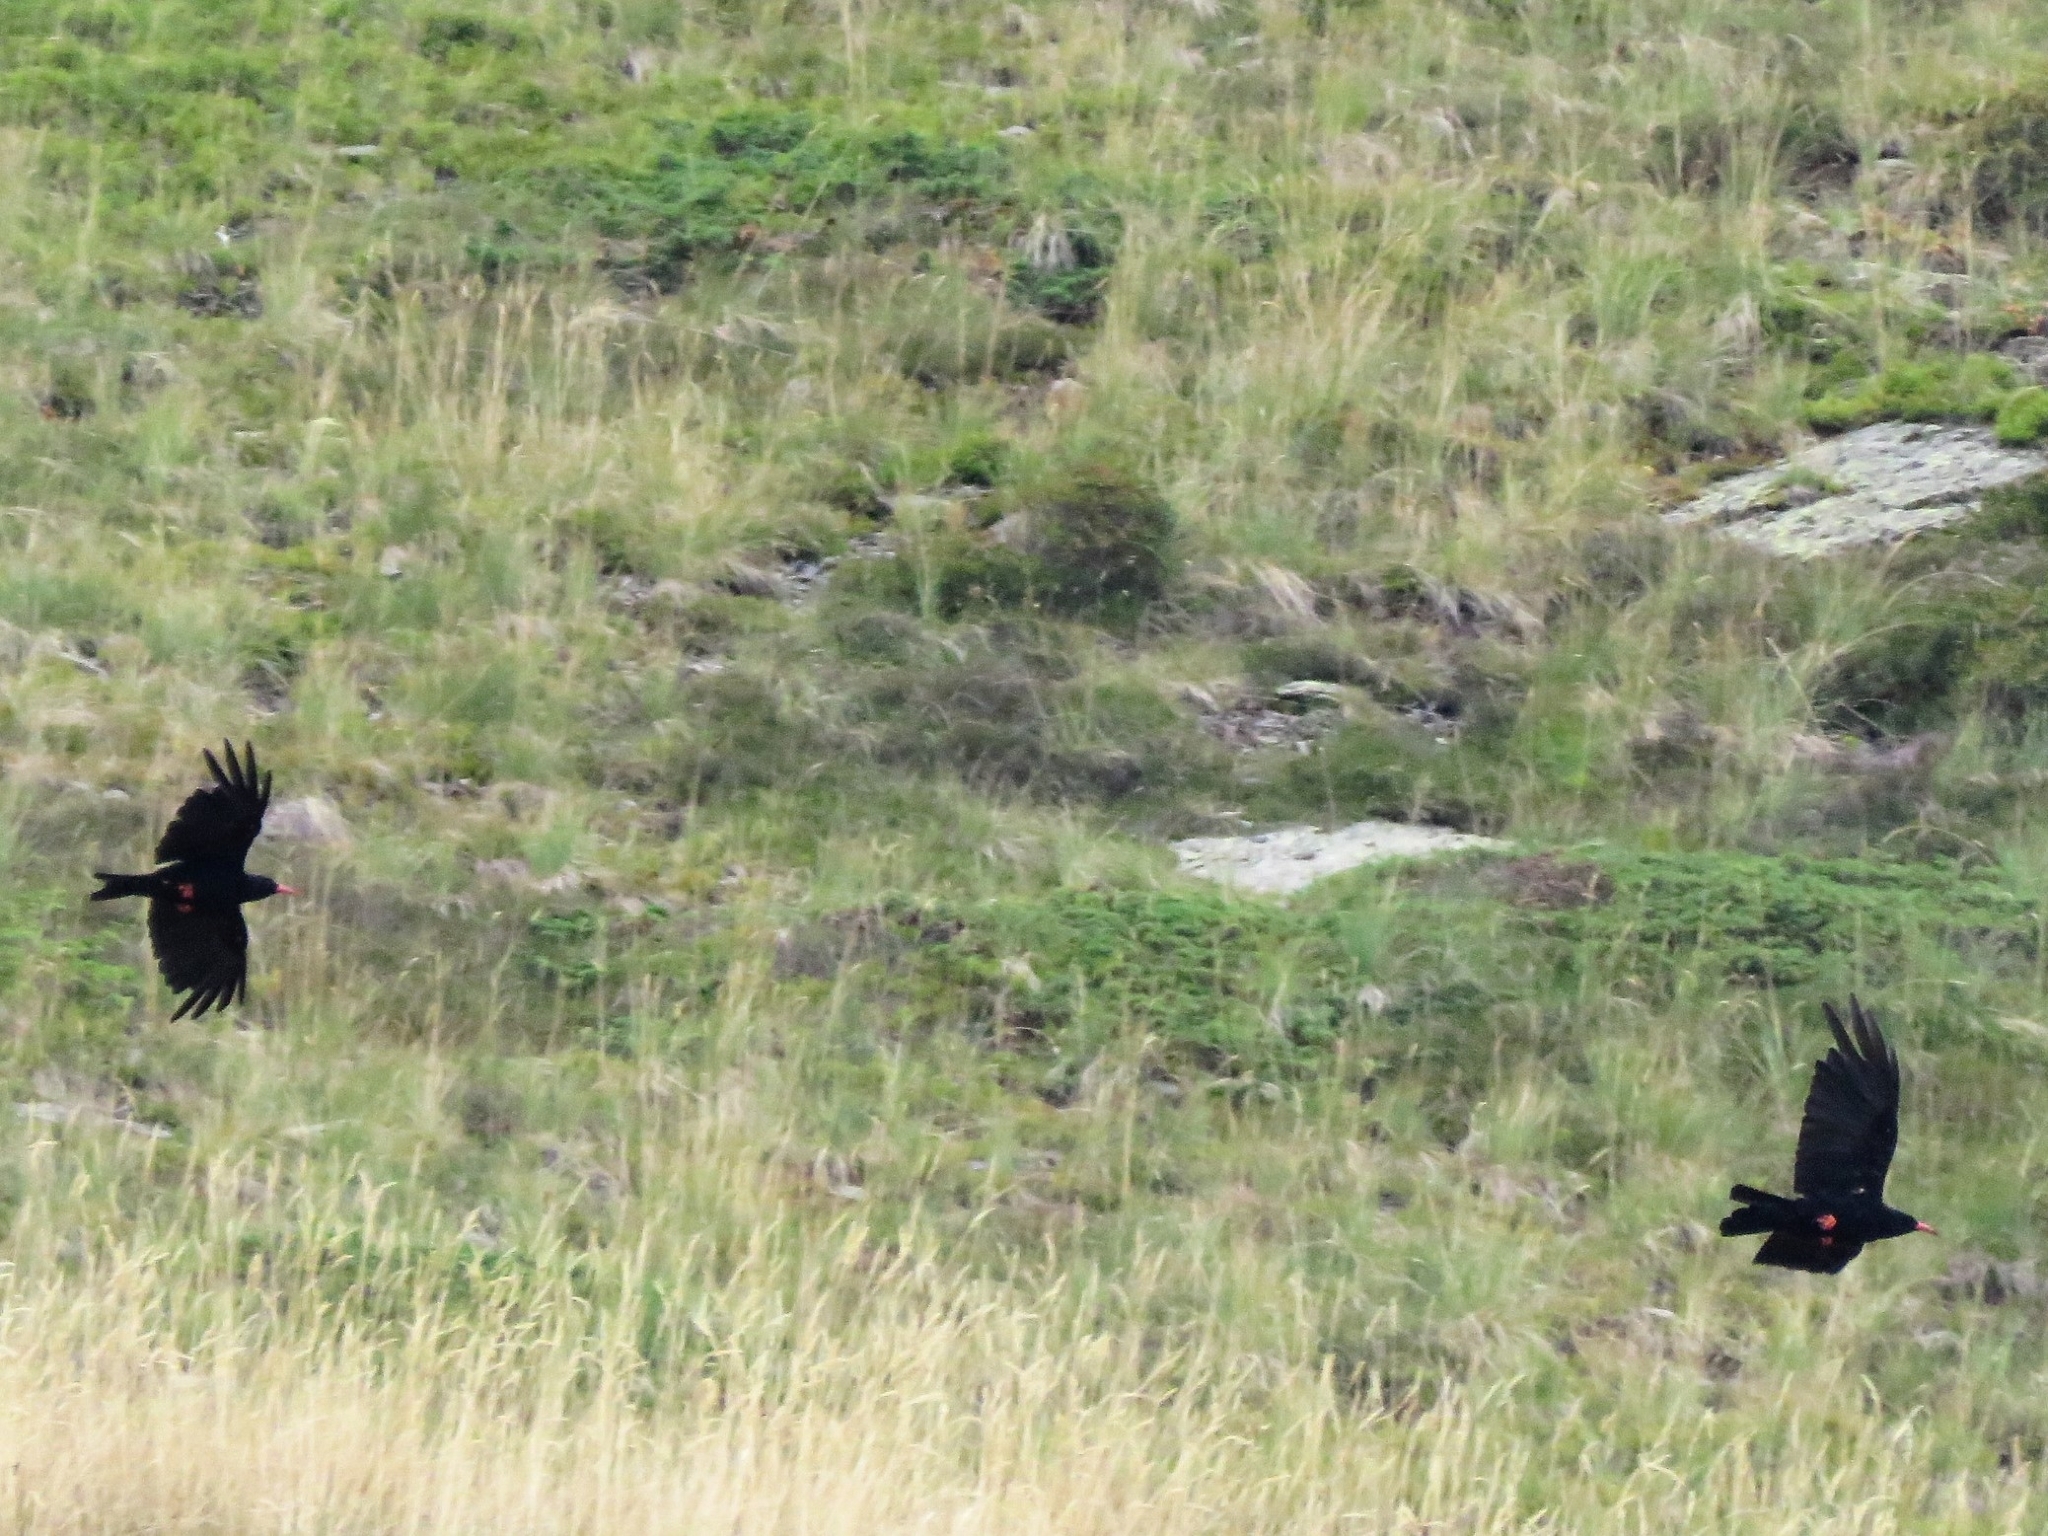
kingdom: Animalia
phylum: Chordata
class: Aves
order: Passeriformes
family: Corvidae
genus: Pyrrhocorax
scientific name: Pyrrhocorax pyrrhocorax
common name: Red-billed chough
